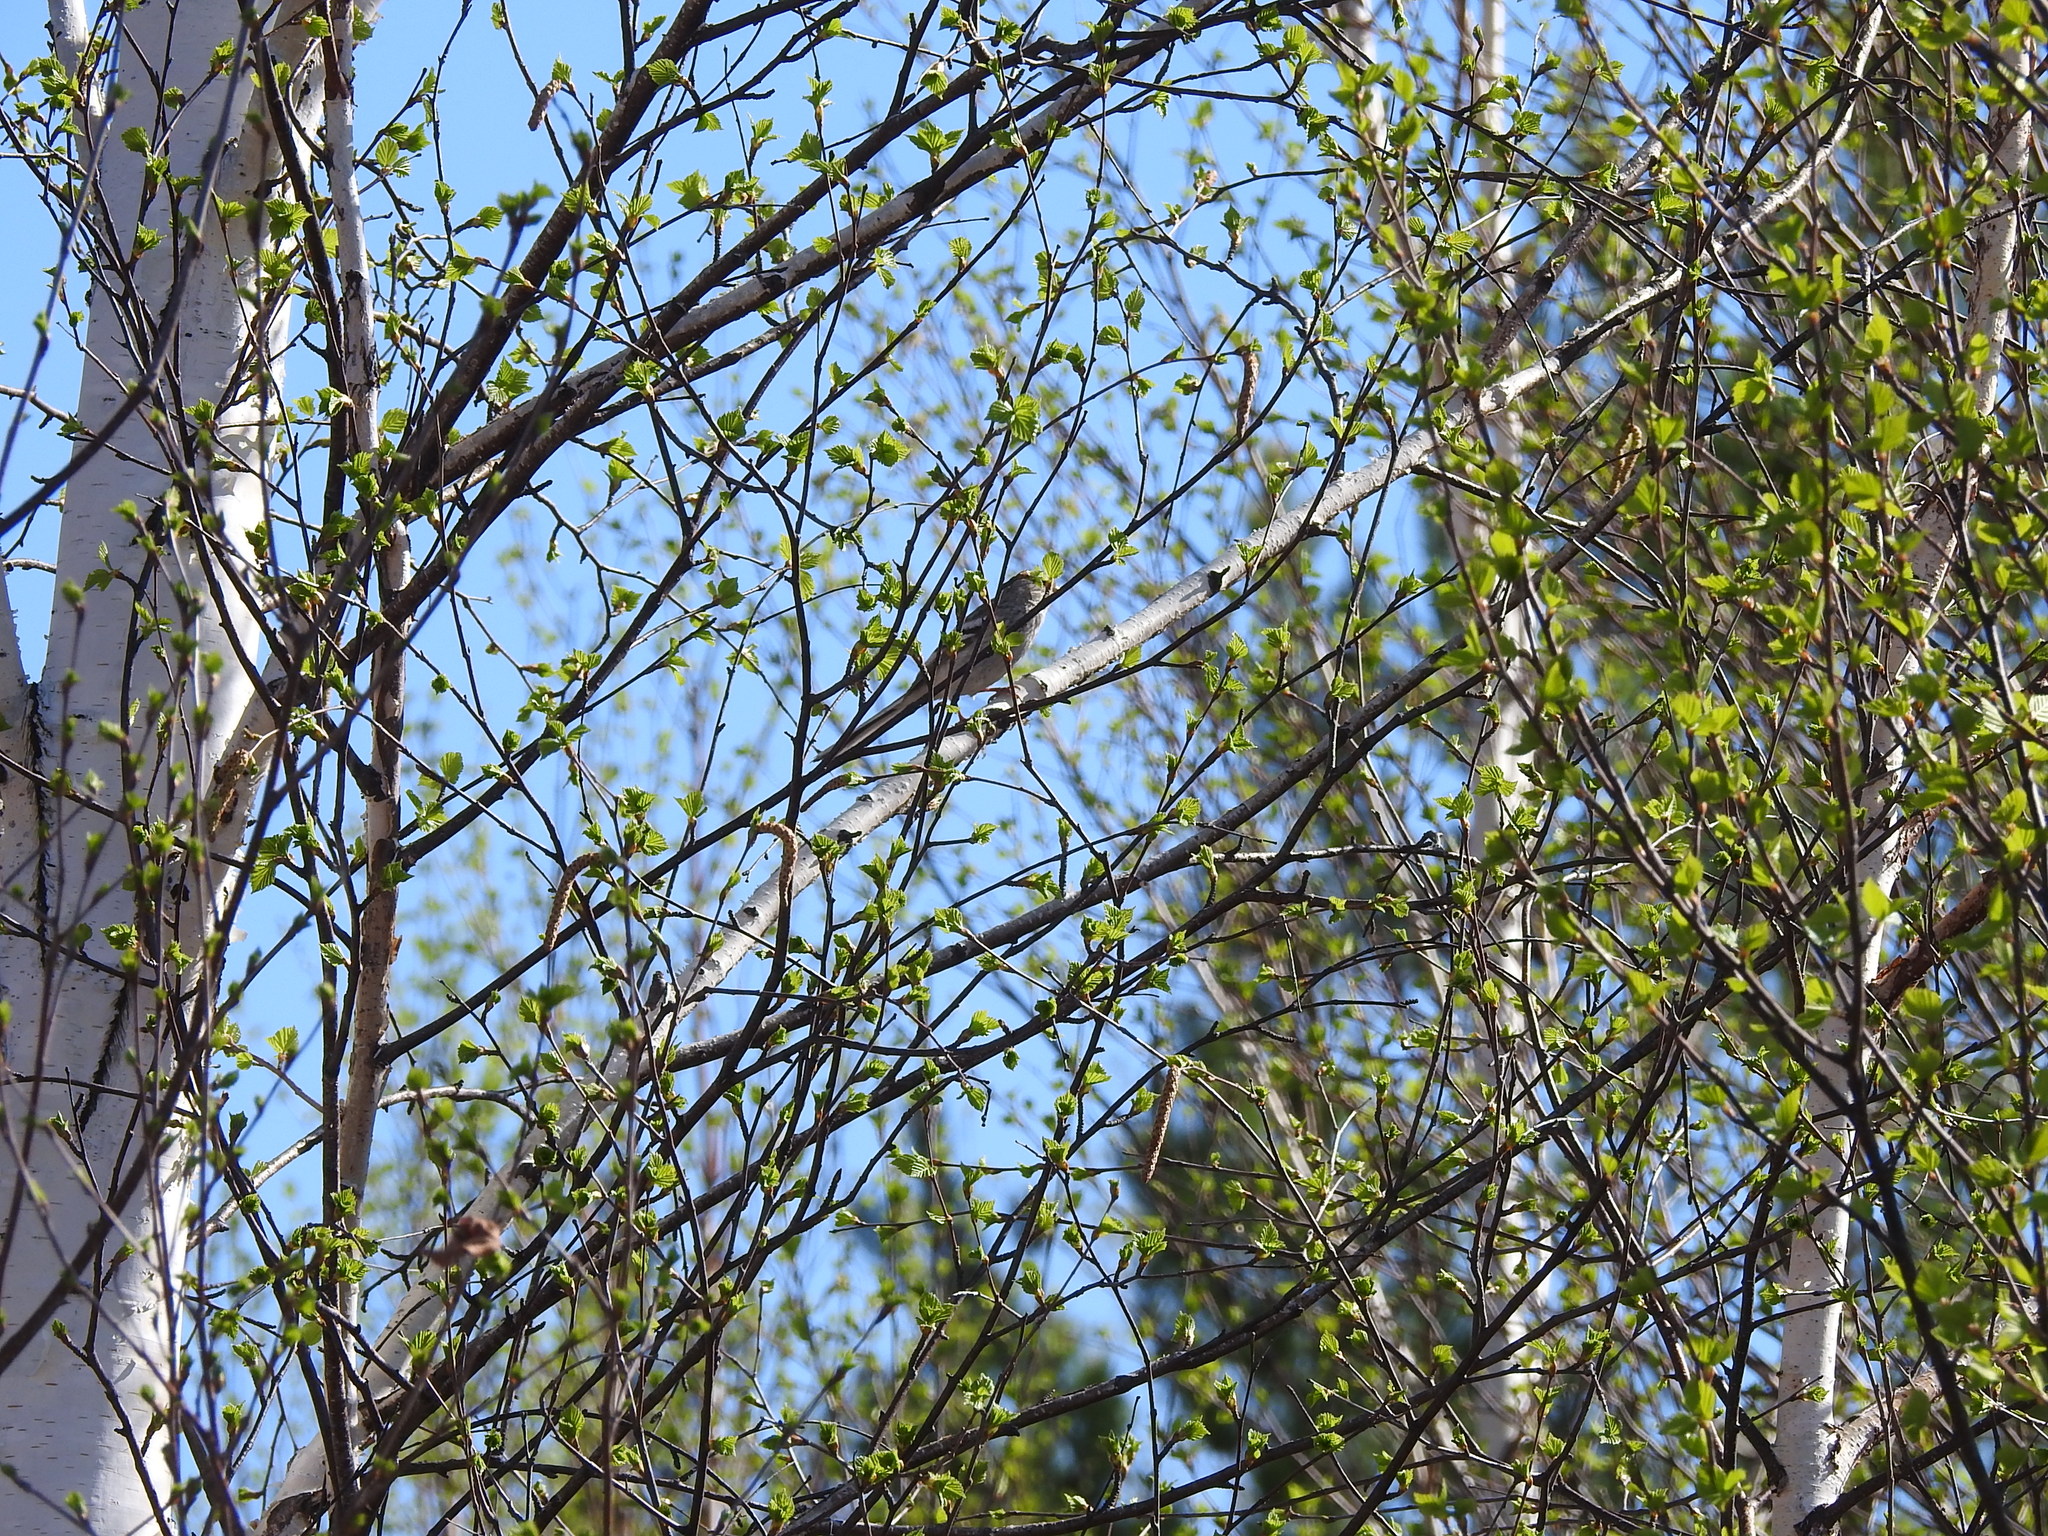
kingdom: Animalia
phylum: Chordata
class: Aves
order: Passeriformes
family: Fringillidae
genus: Carpodacus
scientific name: Carpodacus sibiricus
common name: Long-tailed rosefinch
